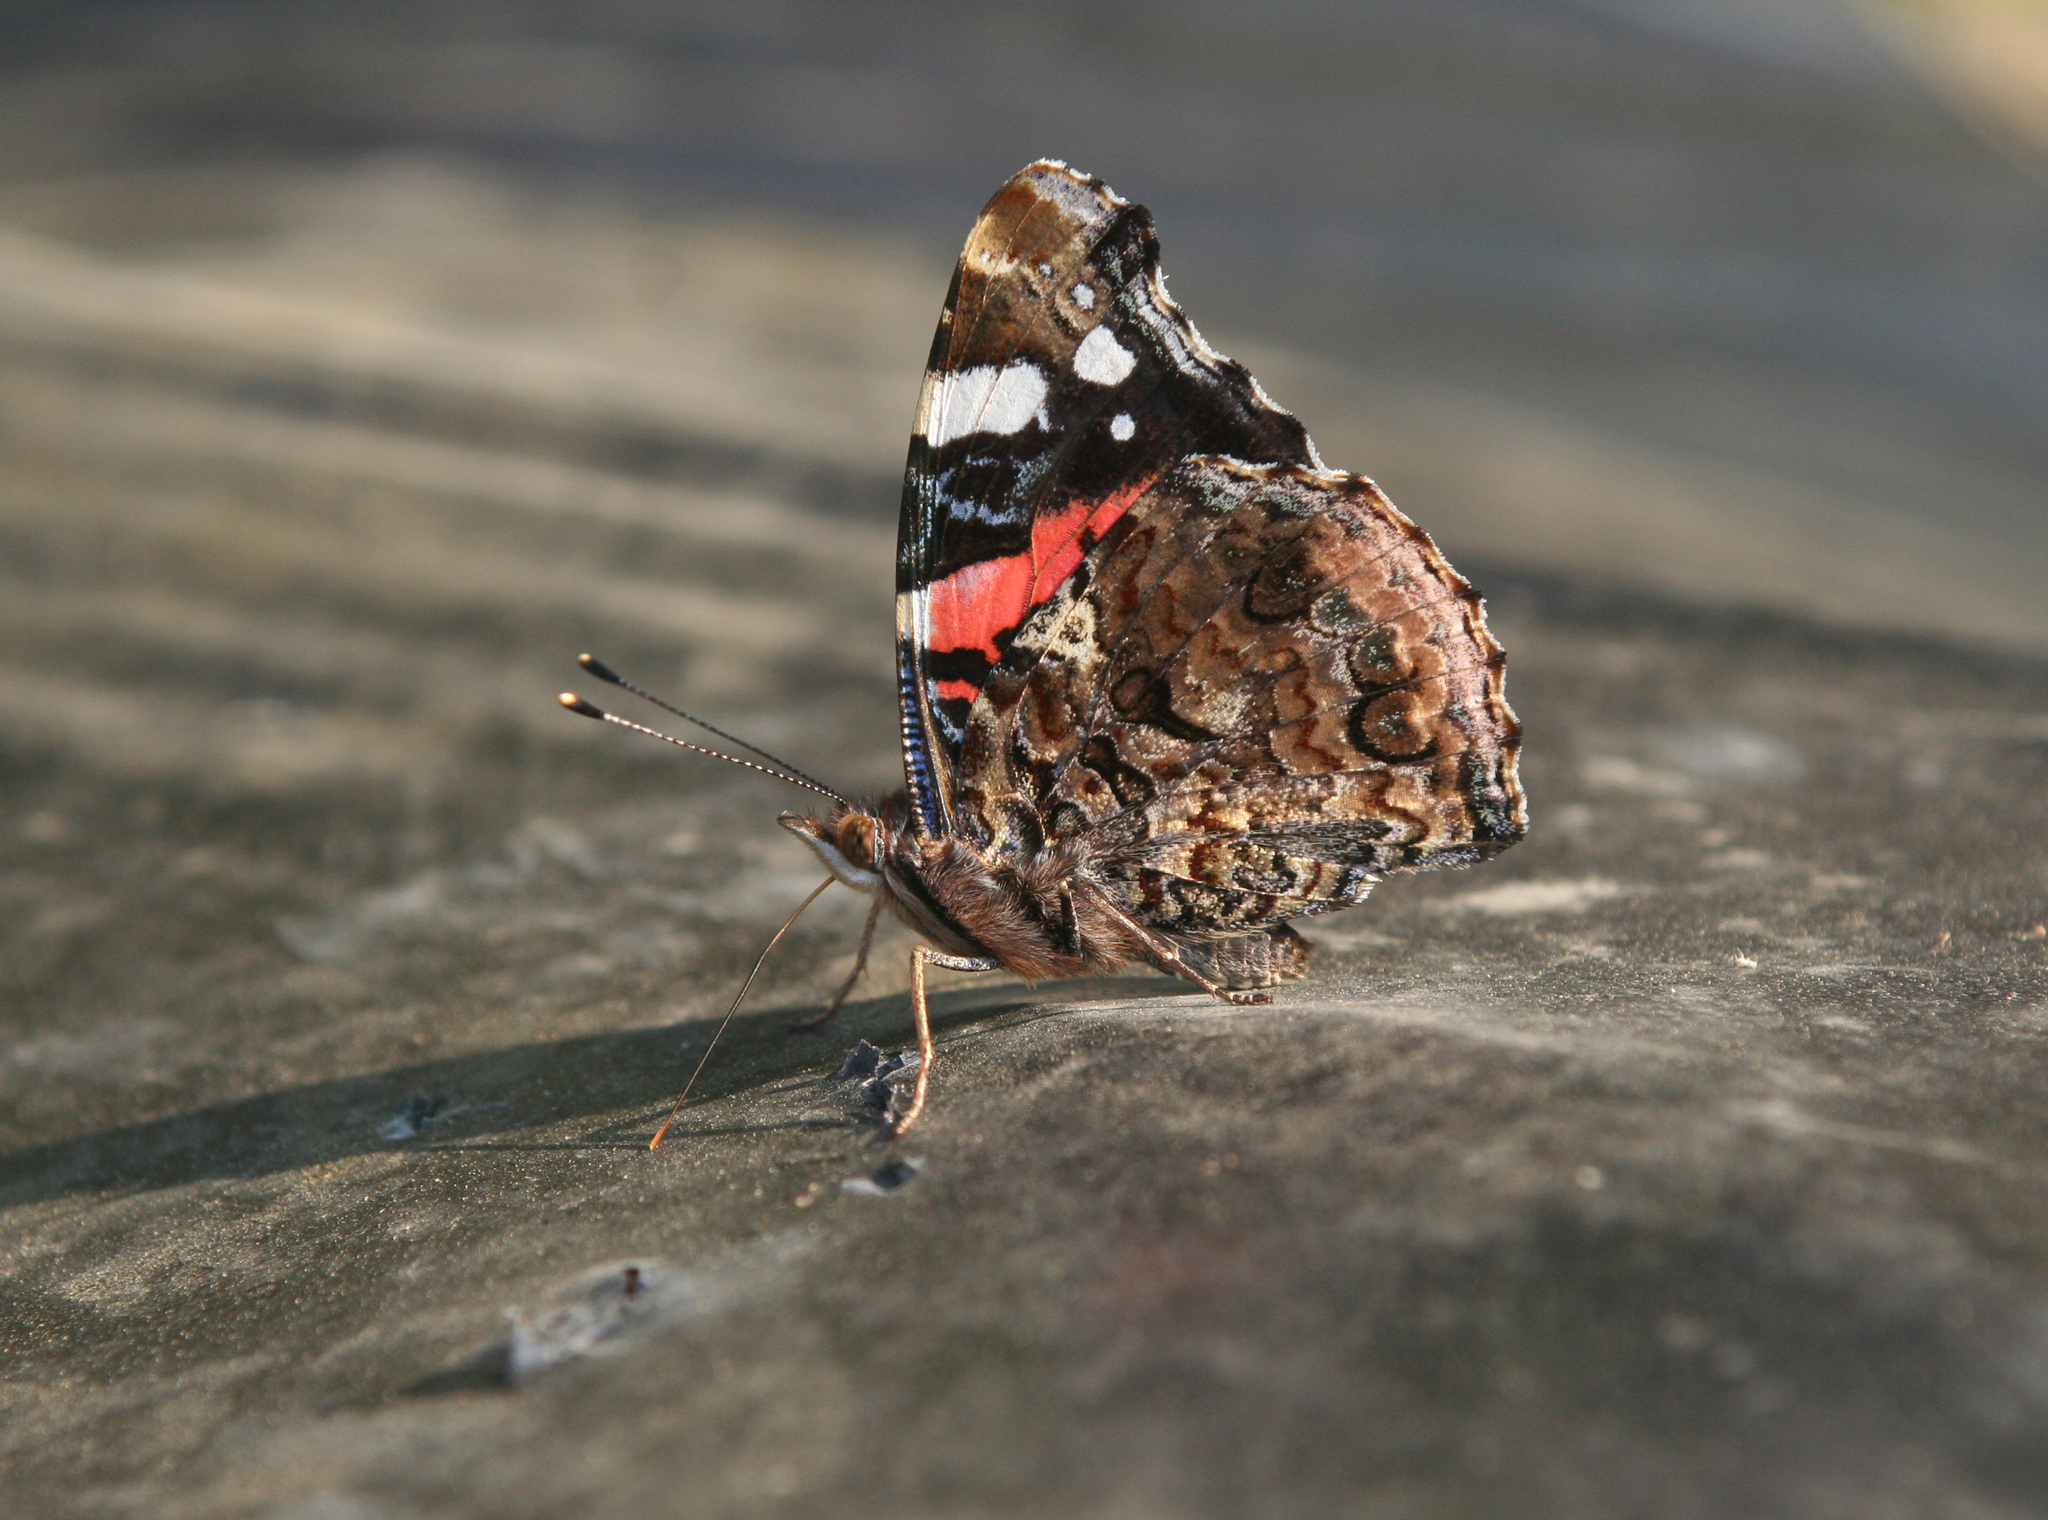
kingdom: Animalia
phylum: Arthropoda
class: Insecta
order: Lepidoptera
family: Nymphalidae
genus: Vanessa
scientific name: Vanessa atalanta
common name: Red admiral
